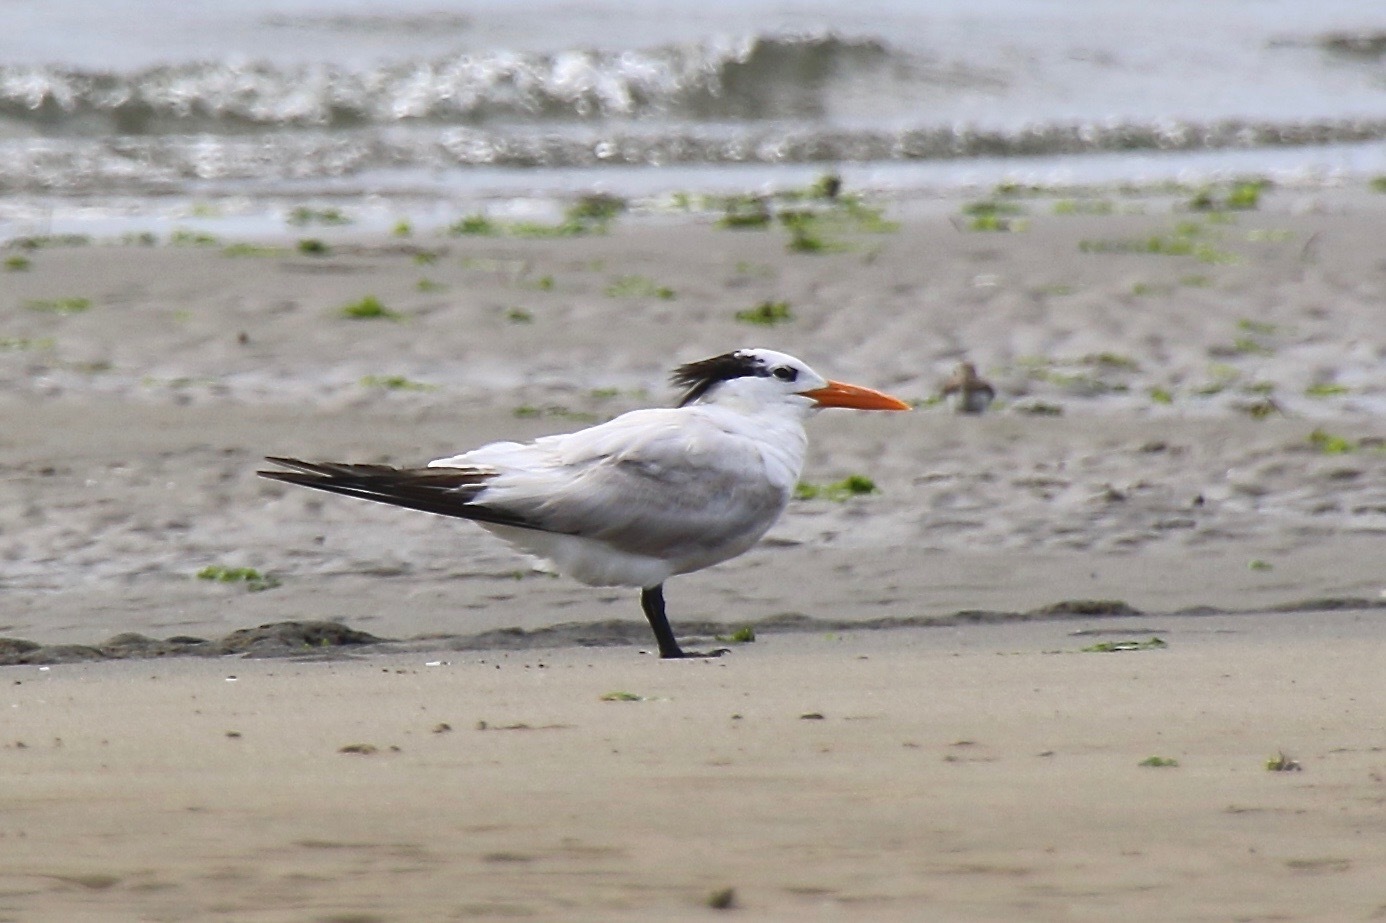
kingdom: Animalia
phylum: Chordata
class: Aves
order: Charadriiformes
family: Laridae
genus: Thalasseus
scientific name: Thalasseus maximus
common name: Royal tern
